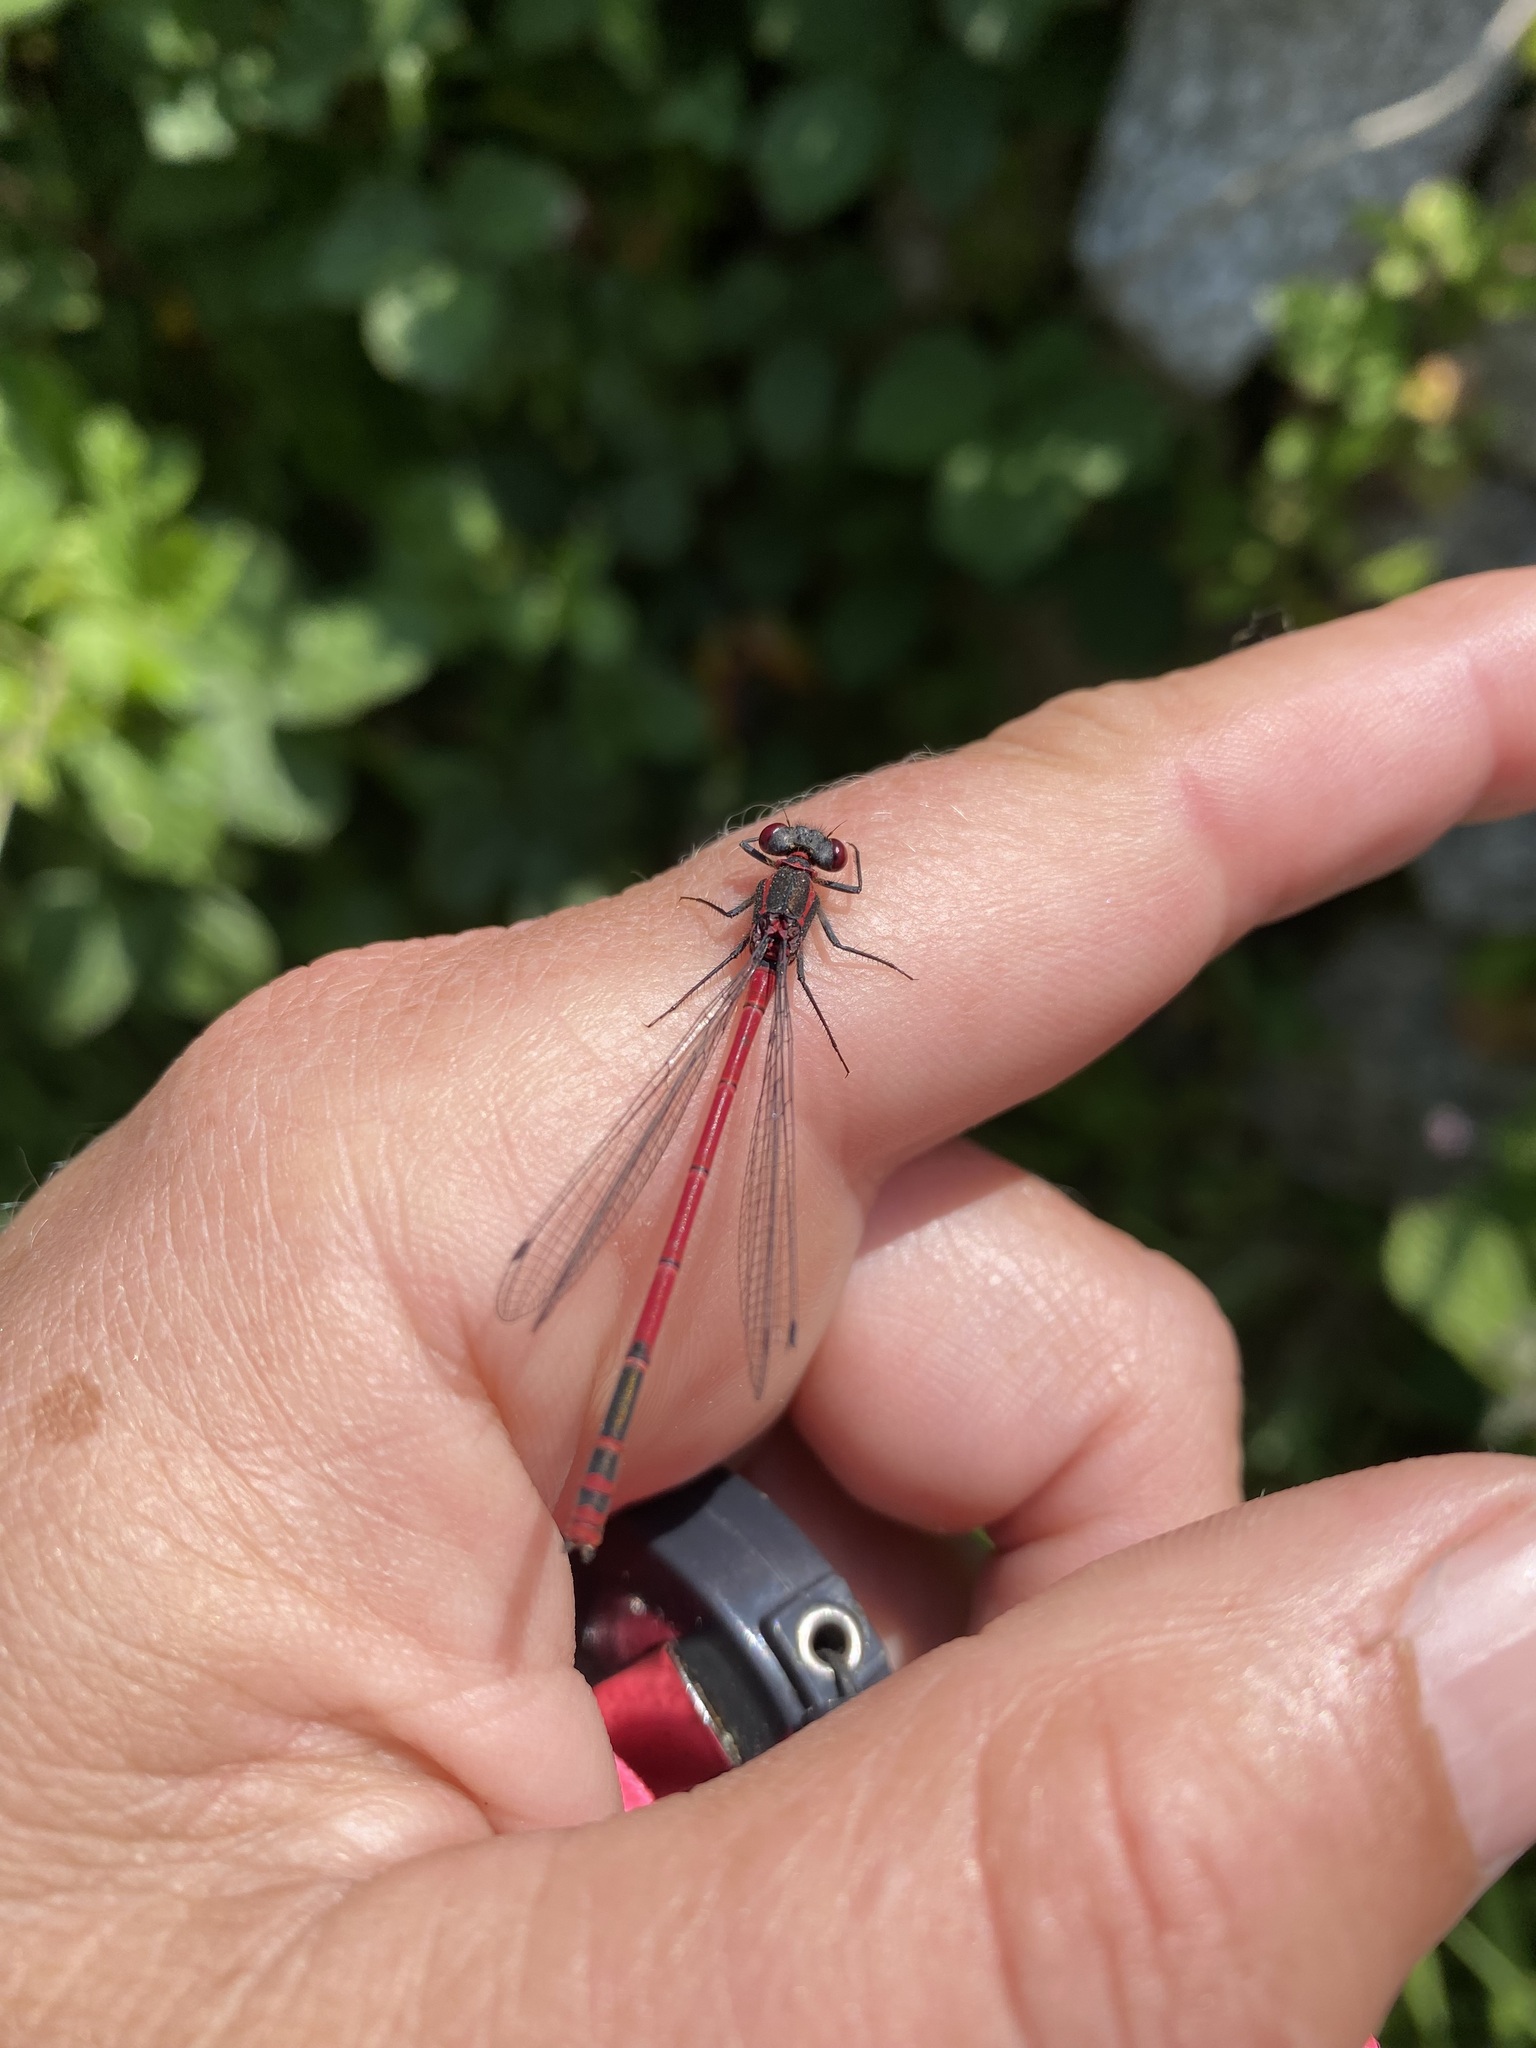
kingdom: Animalia
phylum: Arthropoda
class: Insecta
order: Odonata
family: Coenagrionidae
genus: Pyrrhosoma
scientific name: Pyrrhosoma nymphula
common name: Large red damsel
